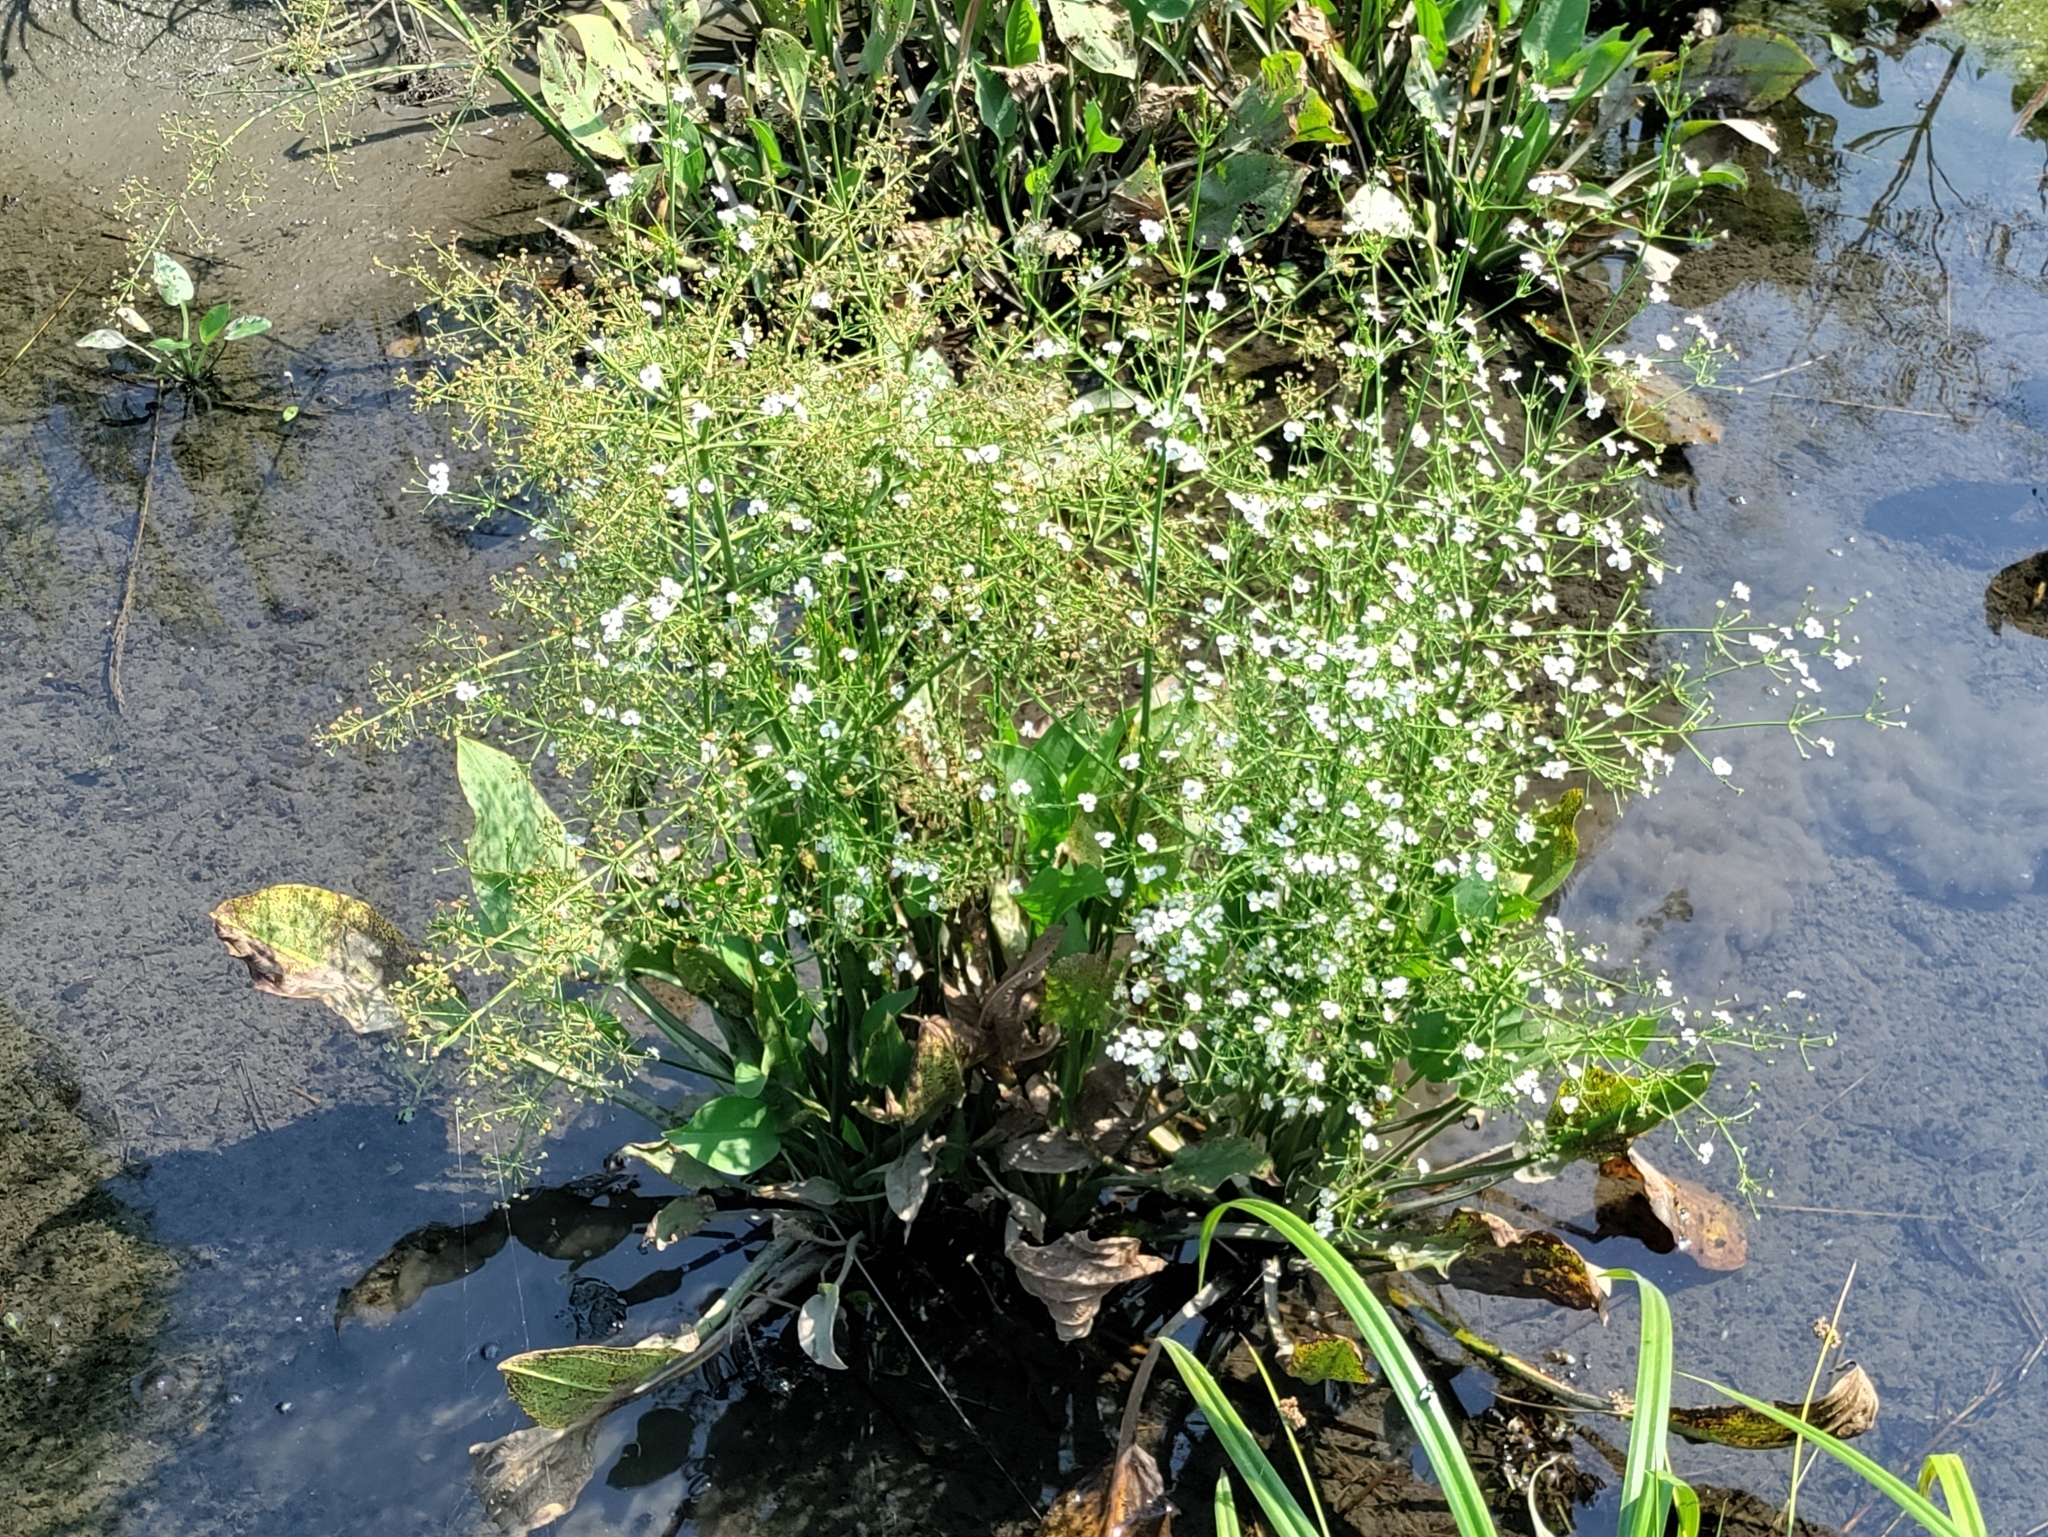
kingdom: Plantae
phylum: Tracheophyta
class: Liliopsida
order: Alismatales
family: Alismataceae
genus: Alisma
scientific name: Alisma plantago-aquatica
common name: Water-plantain
